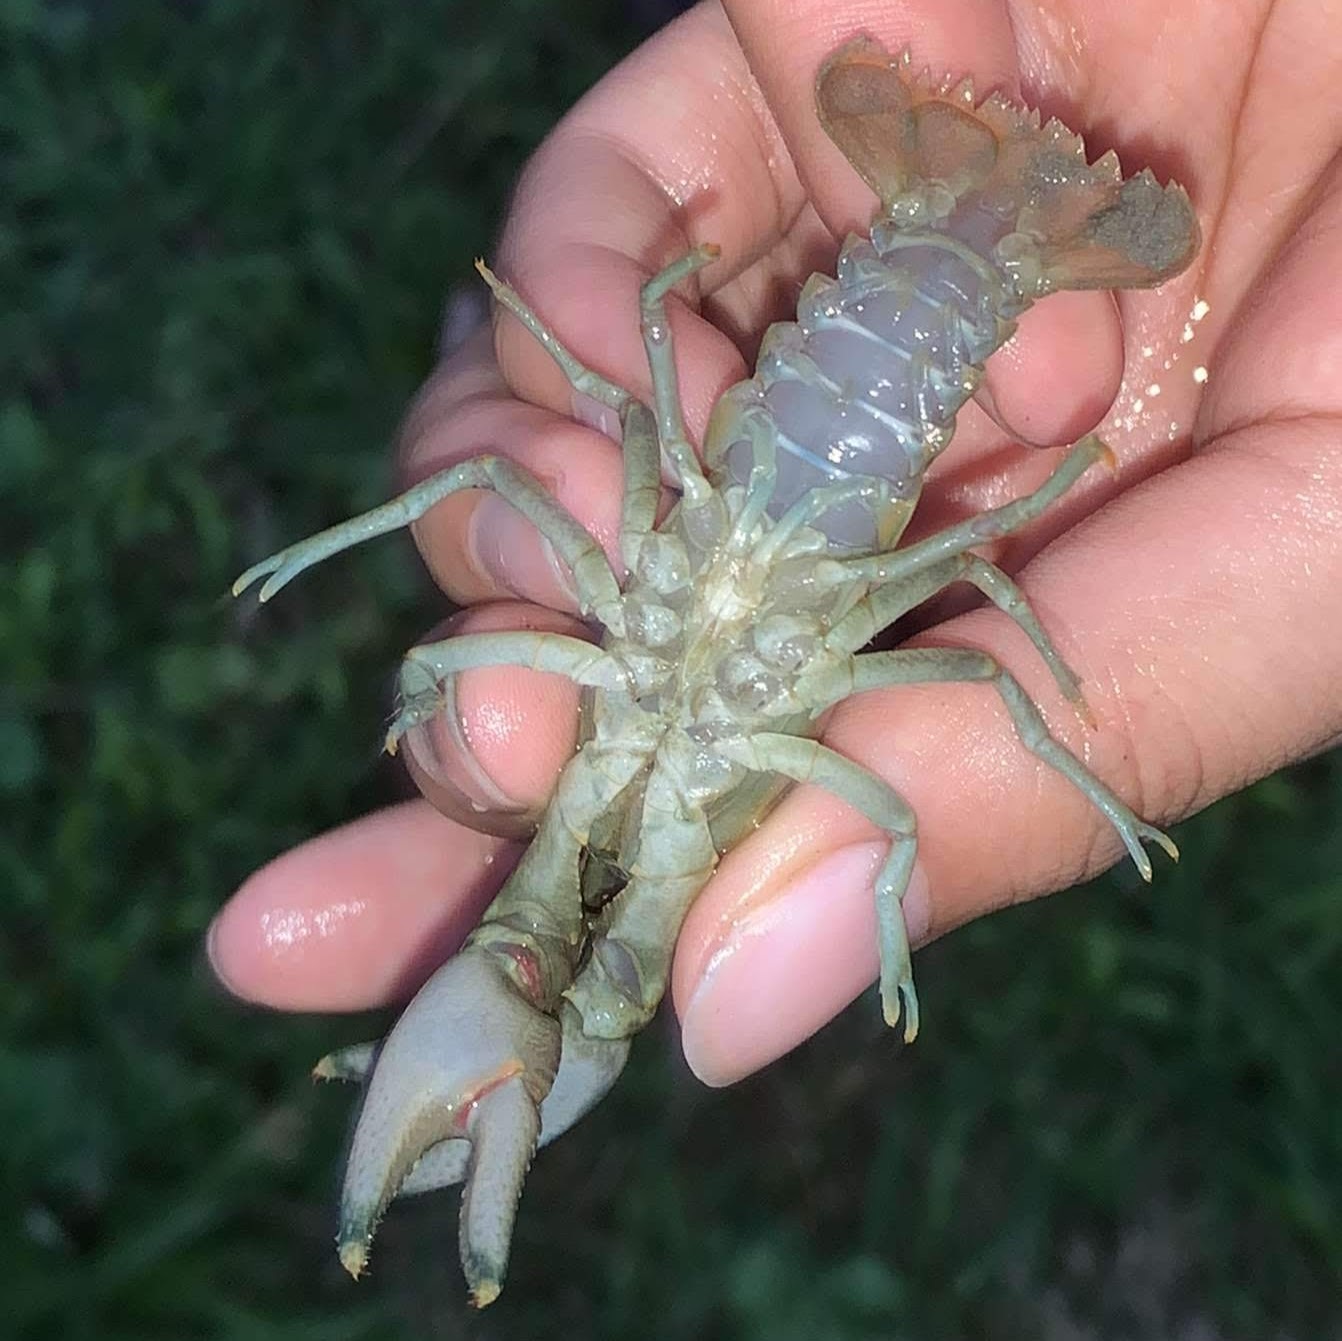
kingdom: Animalia
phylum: Arthropoda
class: Malacostraca
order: Decapoda
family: Cambaridae
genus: Faxonius
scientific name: Faxonius rusticus
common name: Rusty crayfish
